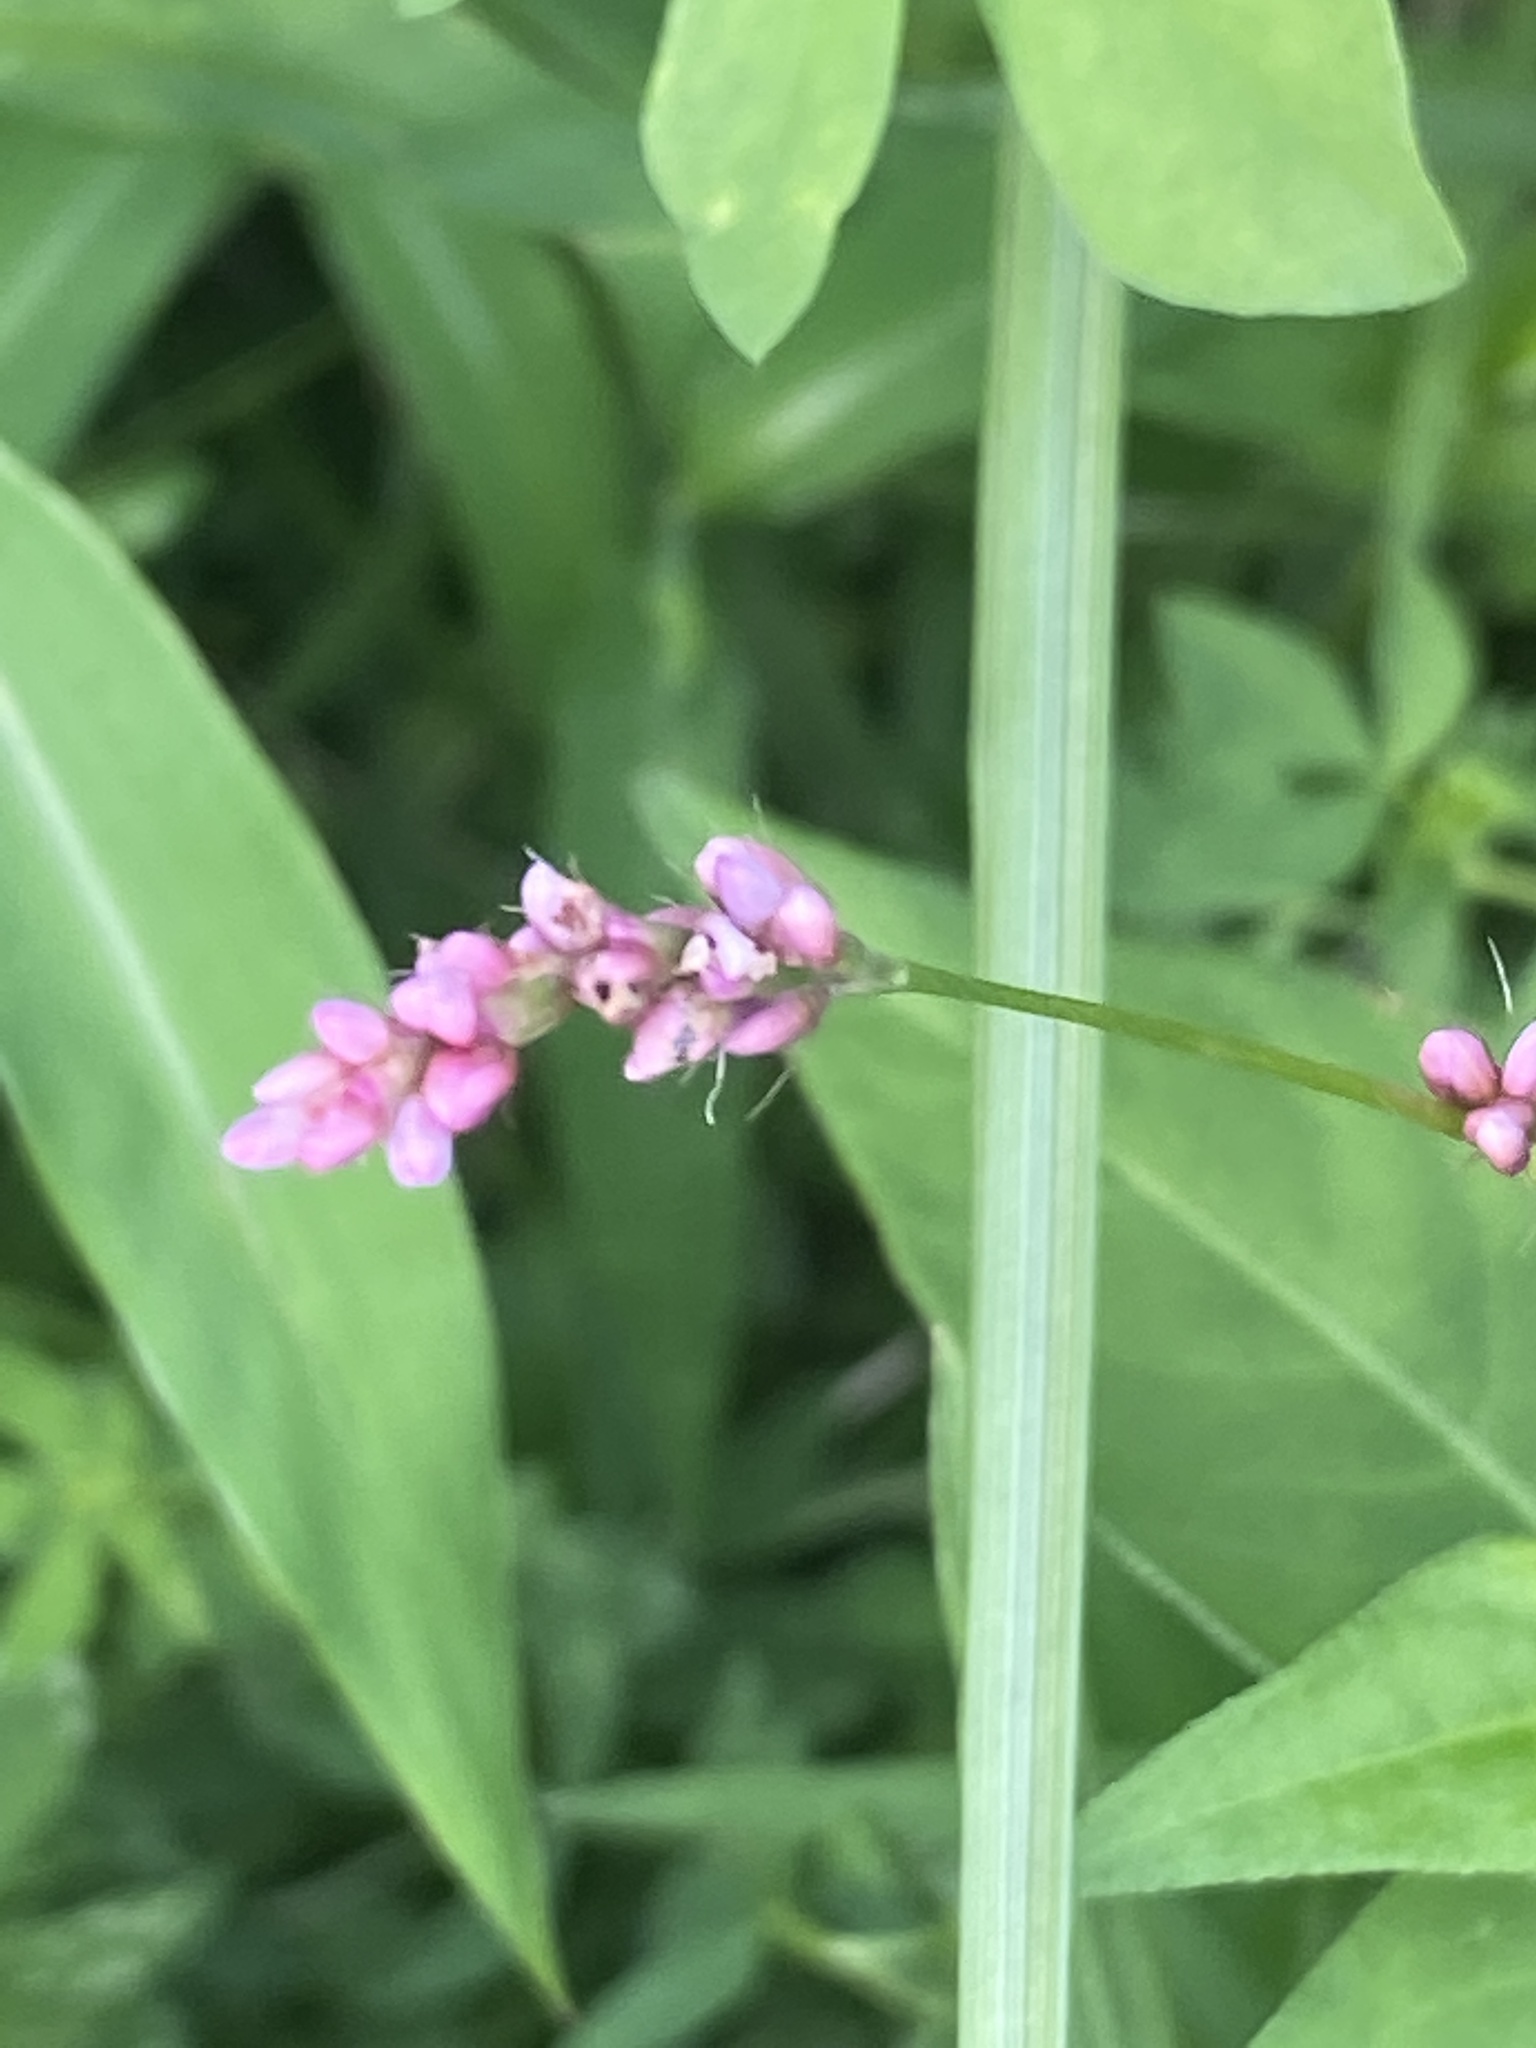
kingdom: Plantae
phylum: Tracheophyta
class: Magnoliopsida
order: Caryophyllales
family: Polygonaceae
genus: Persicaria
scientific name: Persicaria longiseta
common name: Bristly lady's-thumb
